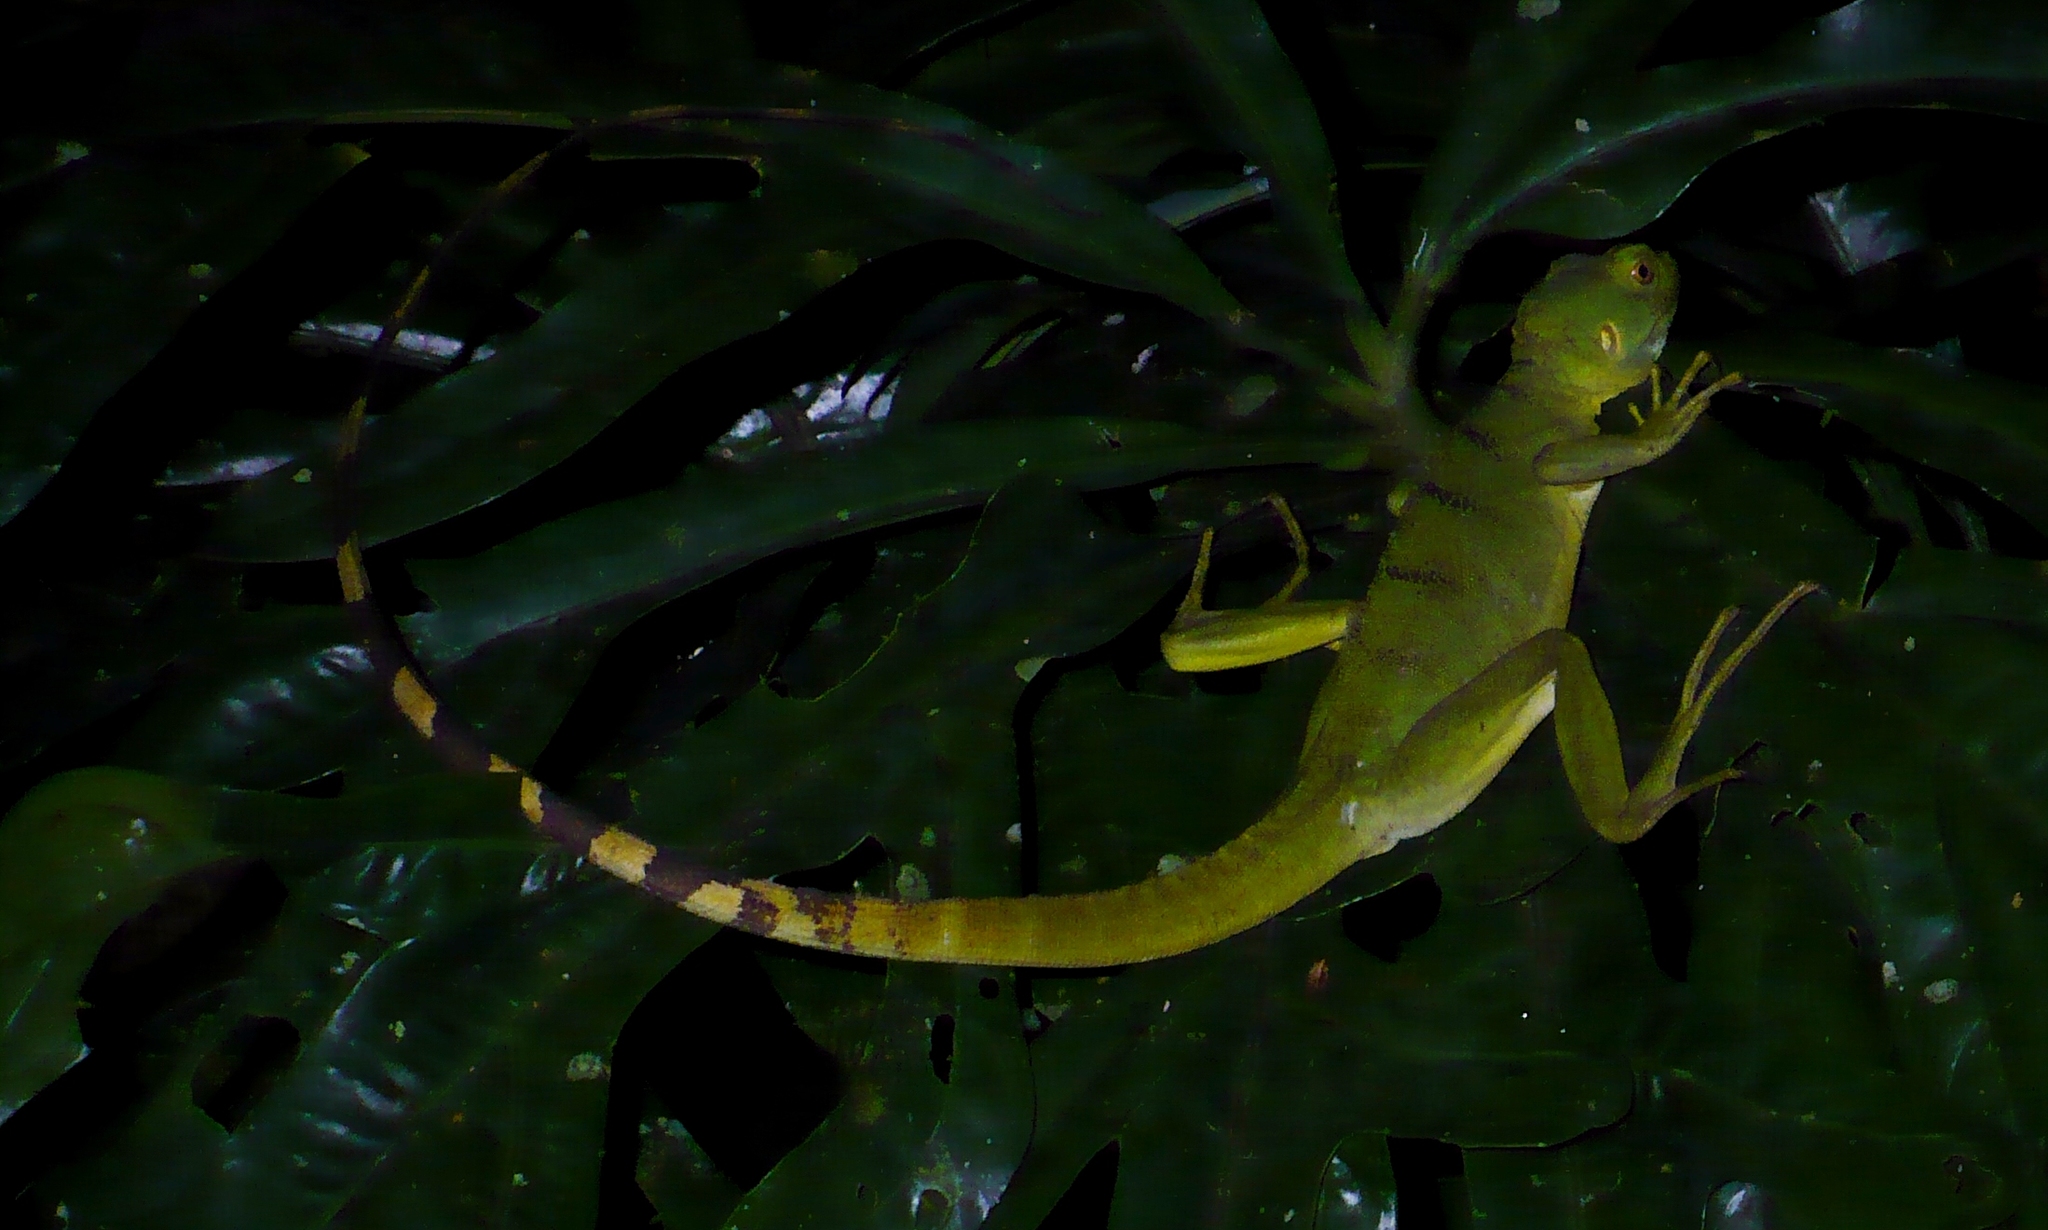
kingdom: Animalia
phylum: Chordata
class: Squamata
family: Corytophanidae
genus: Basiliscus
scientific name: Basiliscus plumifrons
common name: Green basilisk
